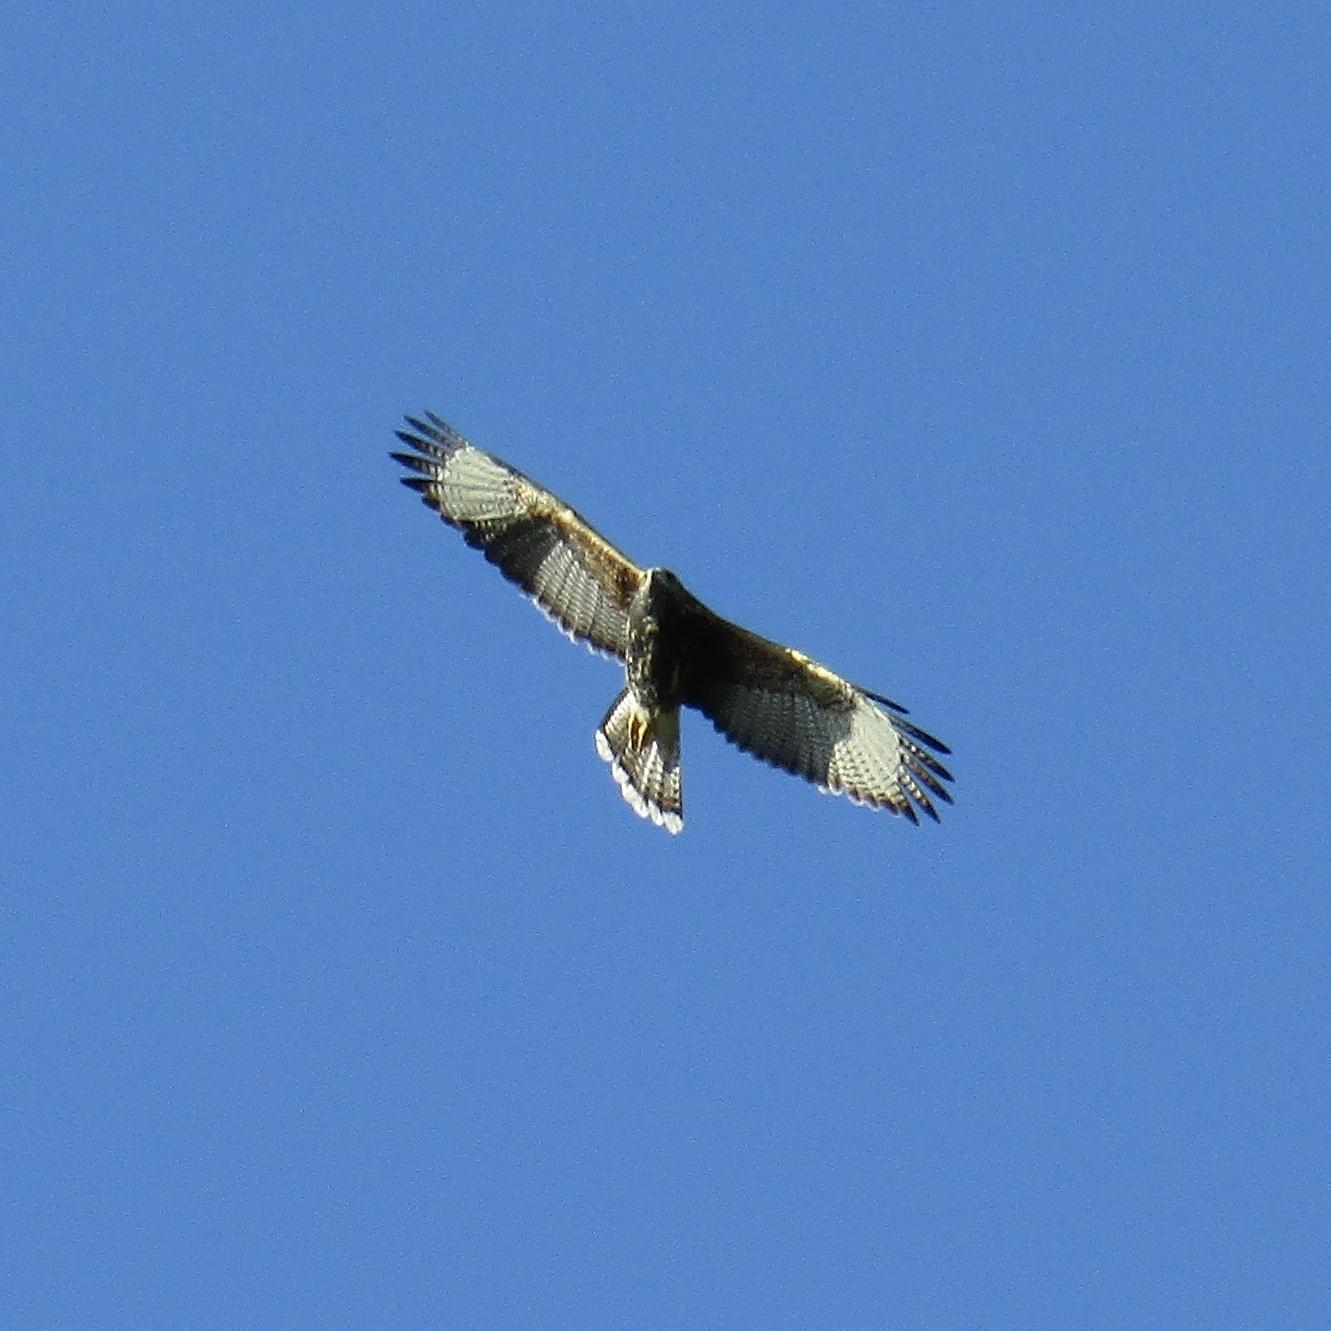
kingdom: Animalia
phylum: Chordata
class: Aves
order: Accipitriformes
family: Accipitridae
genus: Parabuteo
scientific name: Parabuteo unicinctus
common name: Harris's hawk
